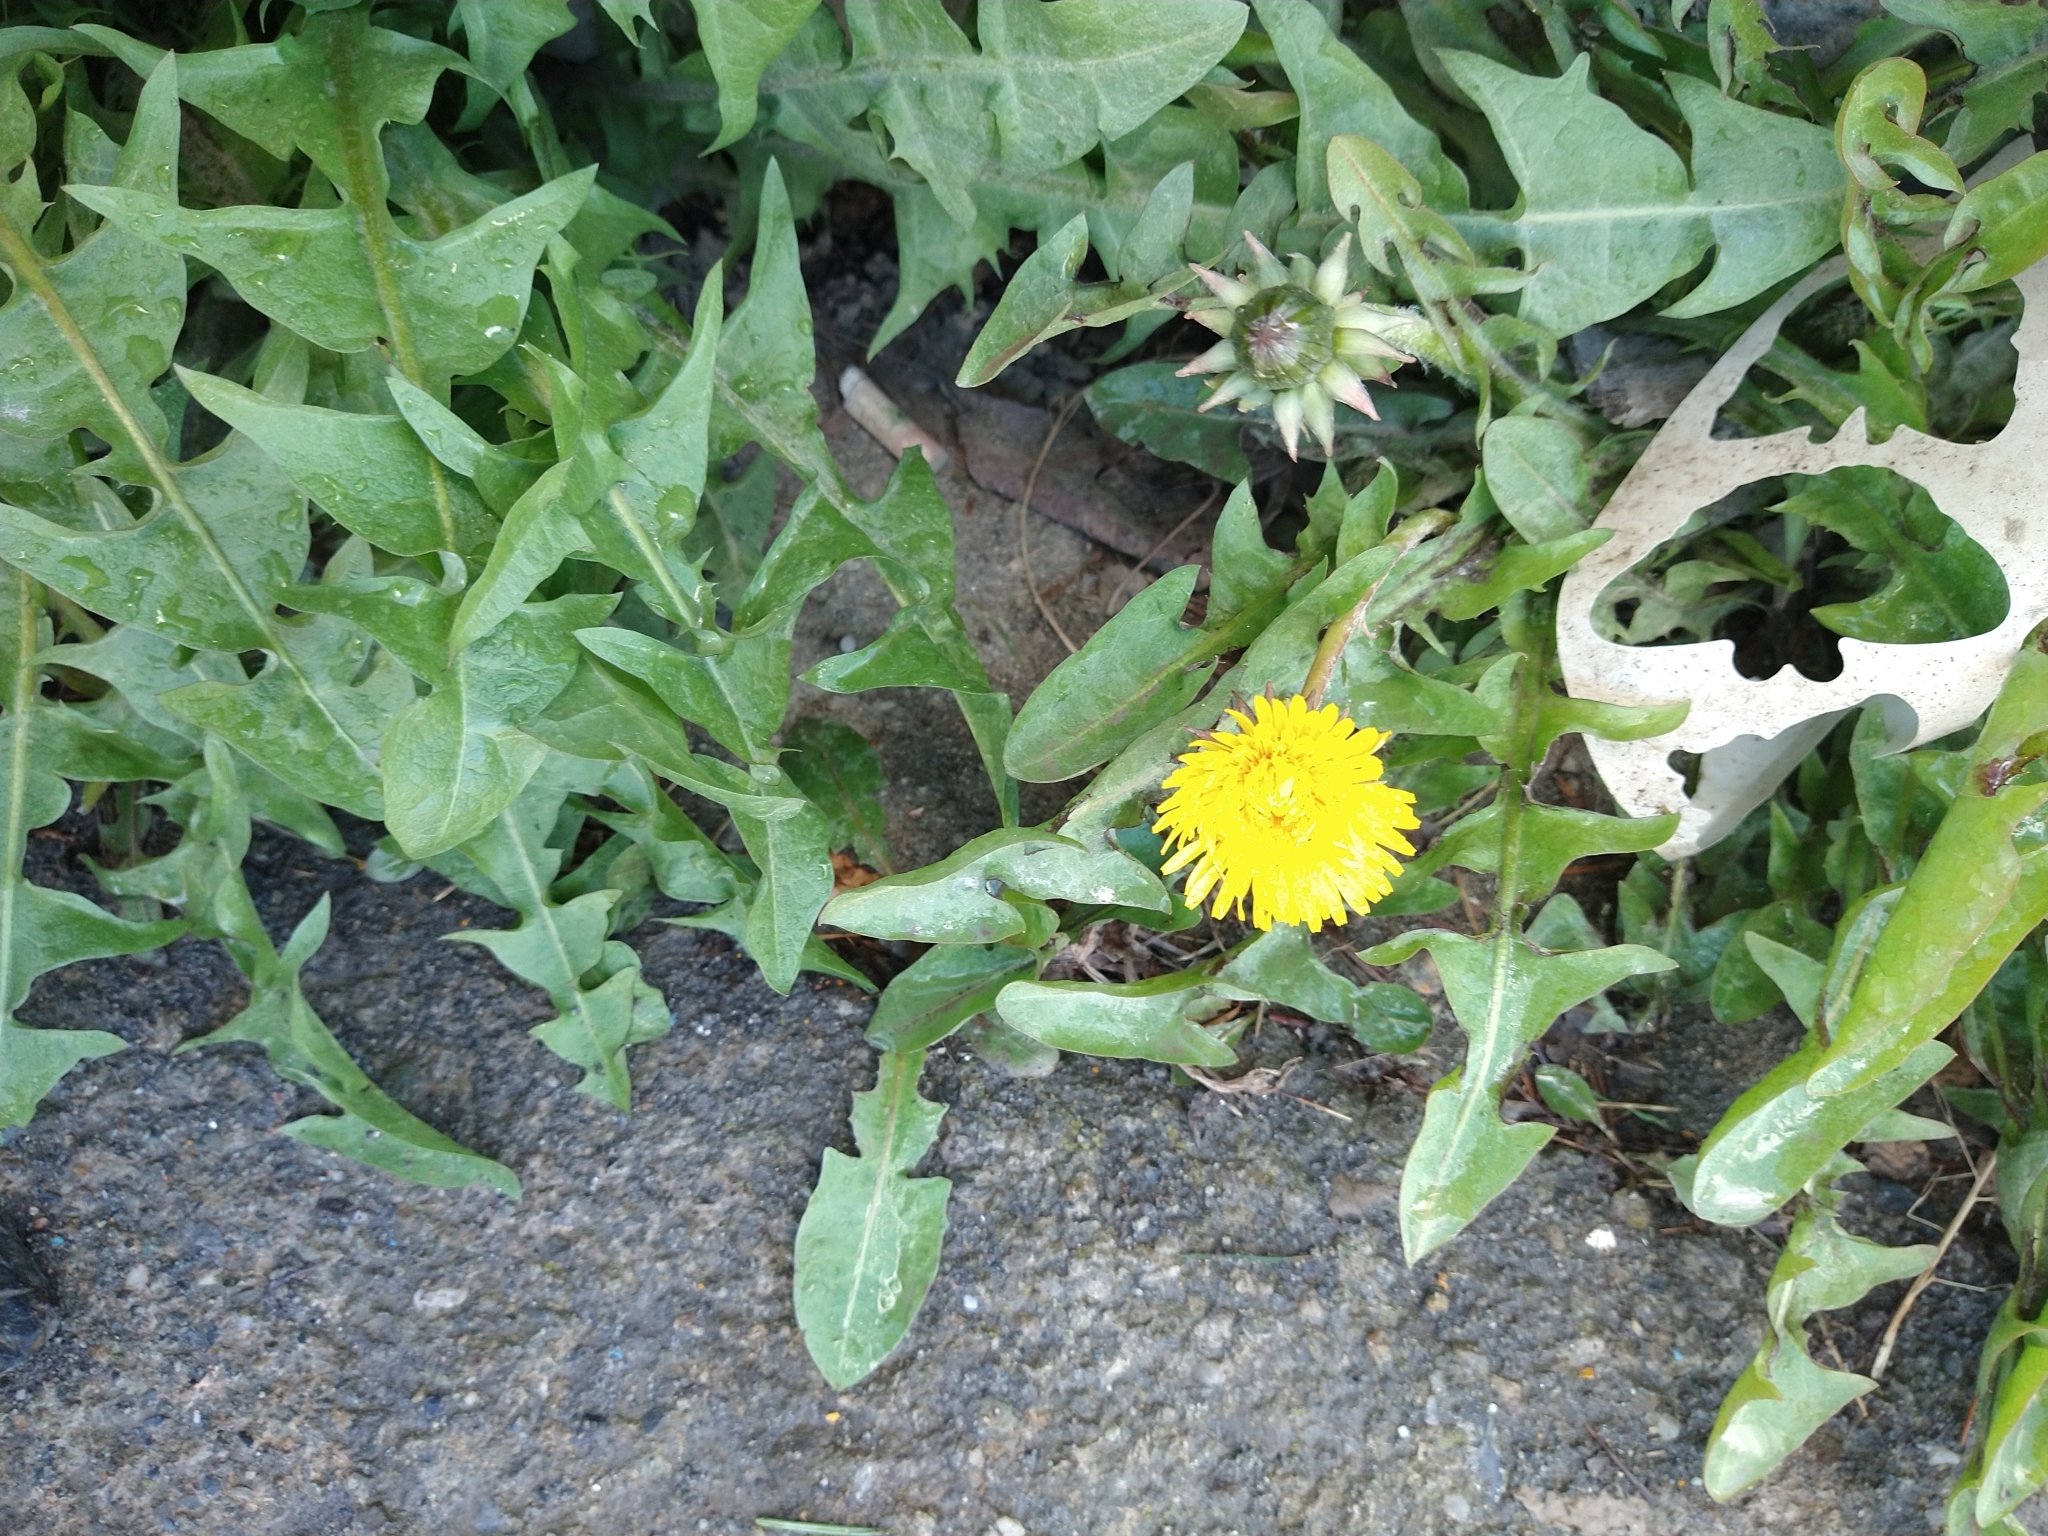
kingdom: Plantae
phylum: Tracheophyta
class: Magnoliopsida
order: Asterales
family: Asteraceae
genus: Taraxacum
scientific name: Taraxacum officinale
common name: Common dandelion
